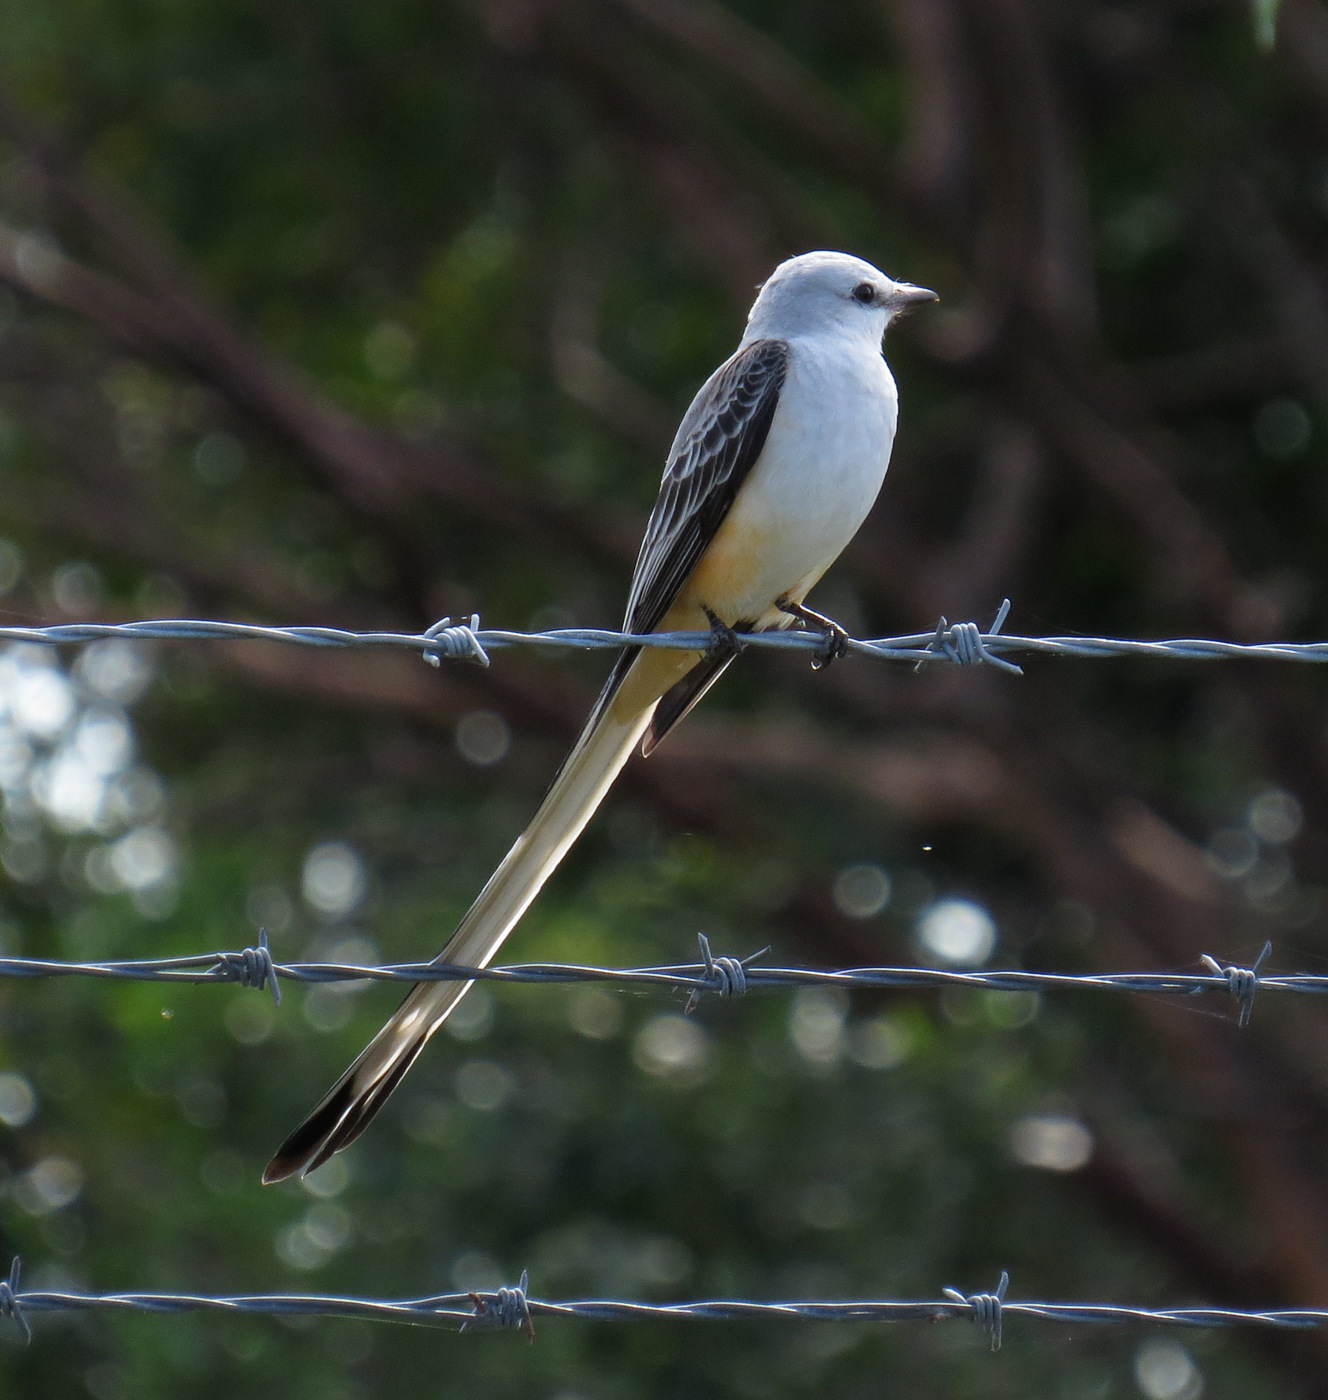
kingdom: Animalia
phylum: Chordata
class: Aves
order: Passeriformes
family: Tyrannidae
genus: Tyrannus
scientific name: Tyrannus forficatus
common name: Scissor-tailed flycatcher
